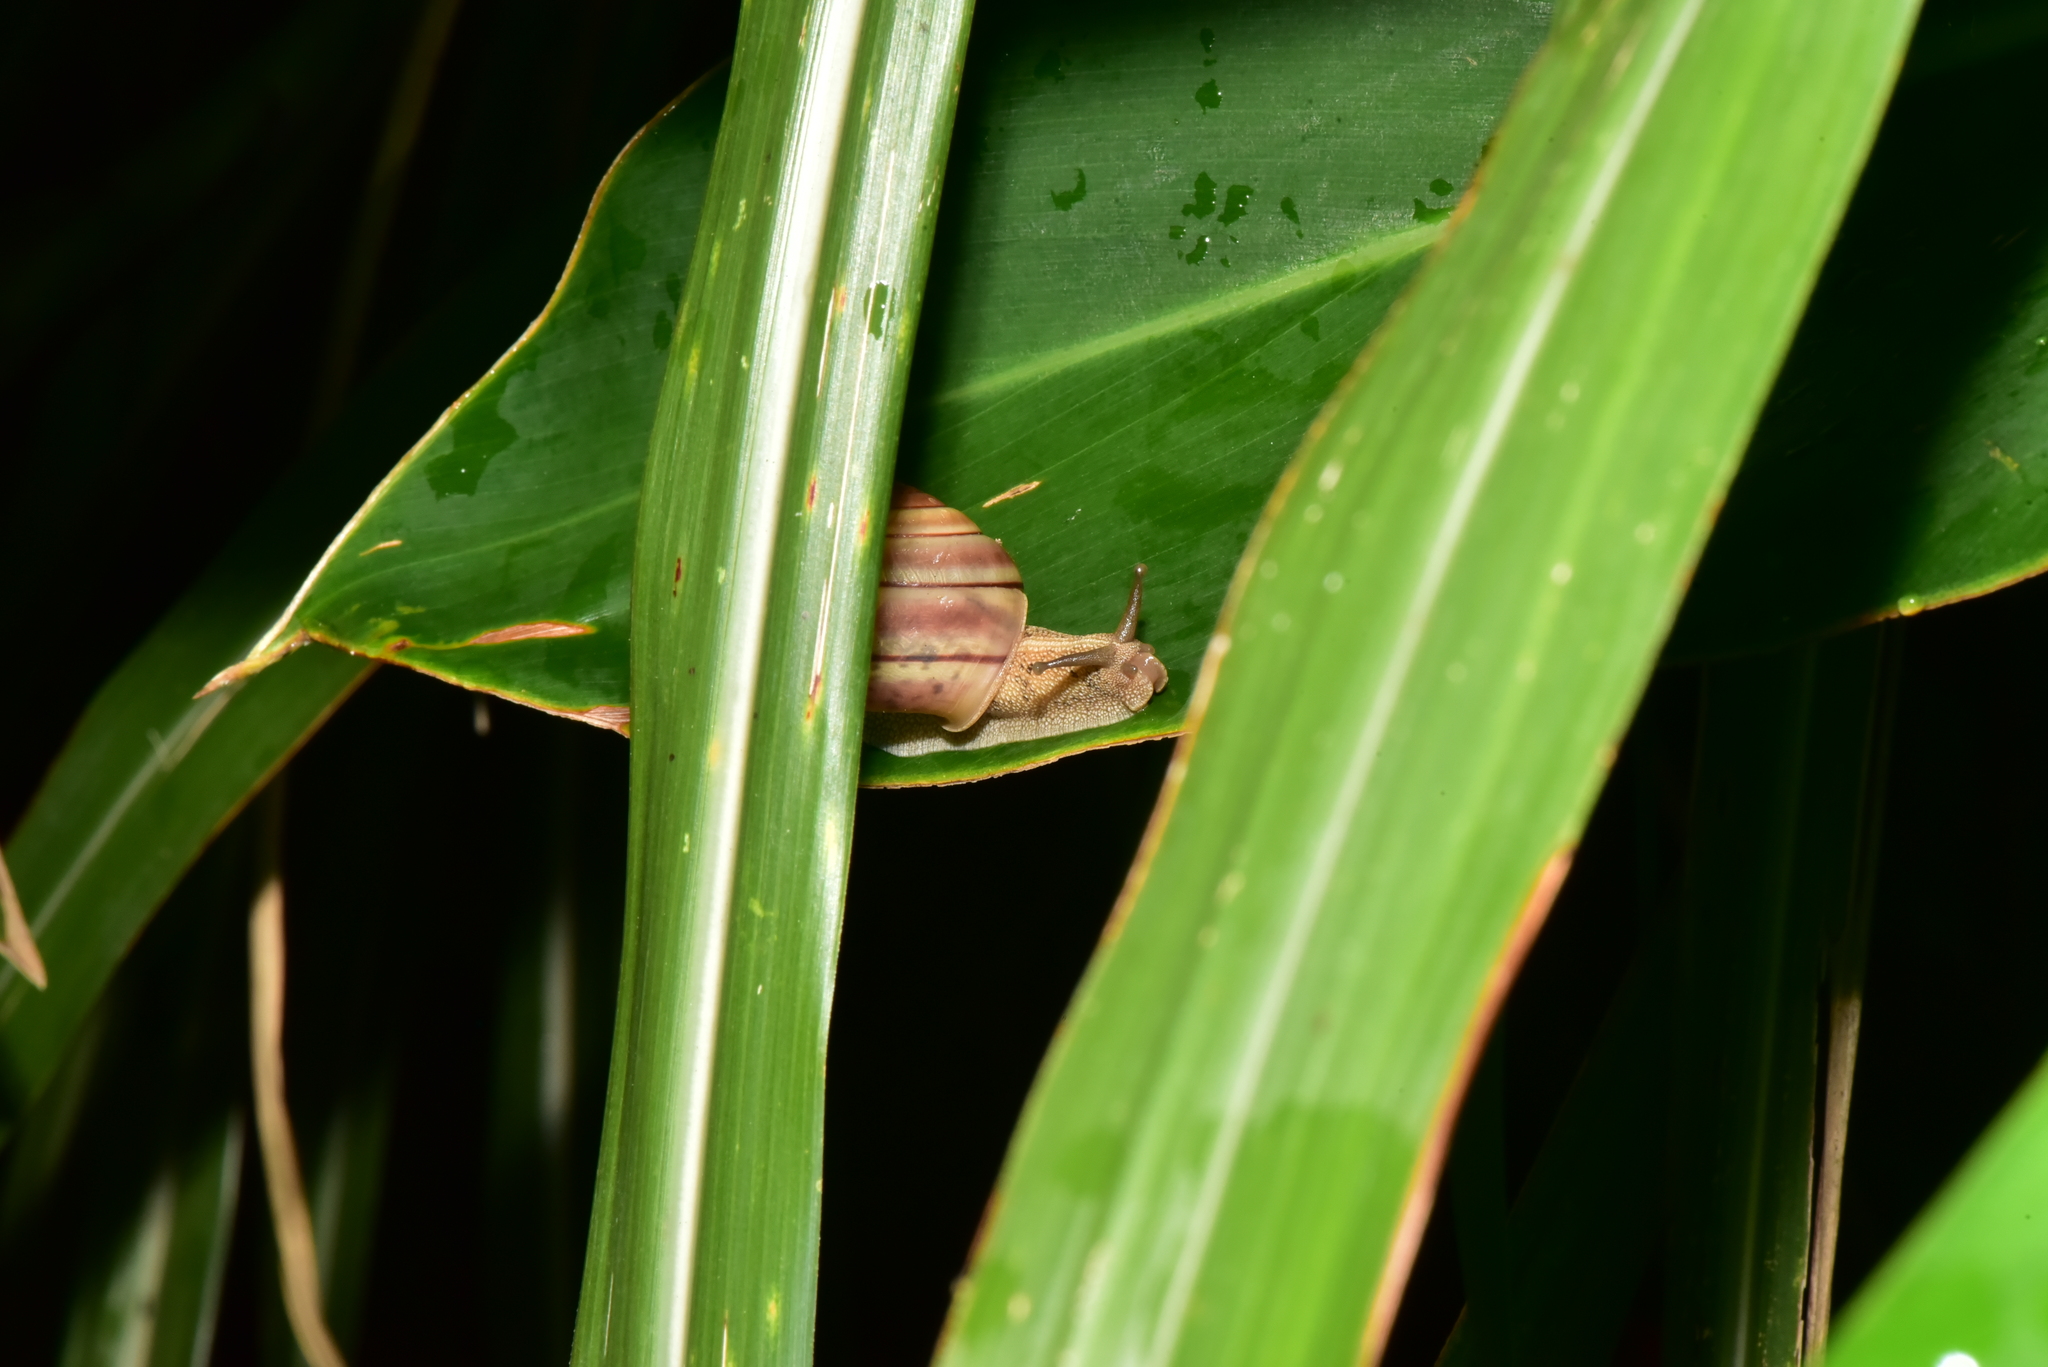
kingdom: Animalia
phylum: Mollusca
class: Gastropoda
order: Stylommatophora
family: Camaenidae
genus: Satsuma
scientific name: Satsuma wenshini
